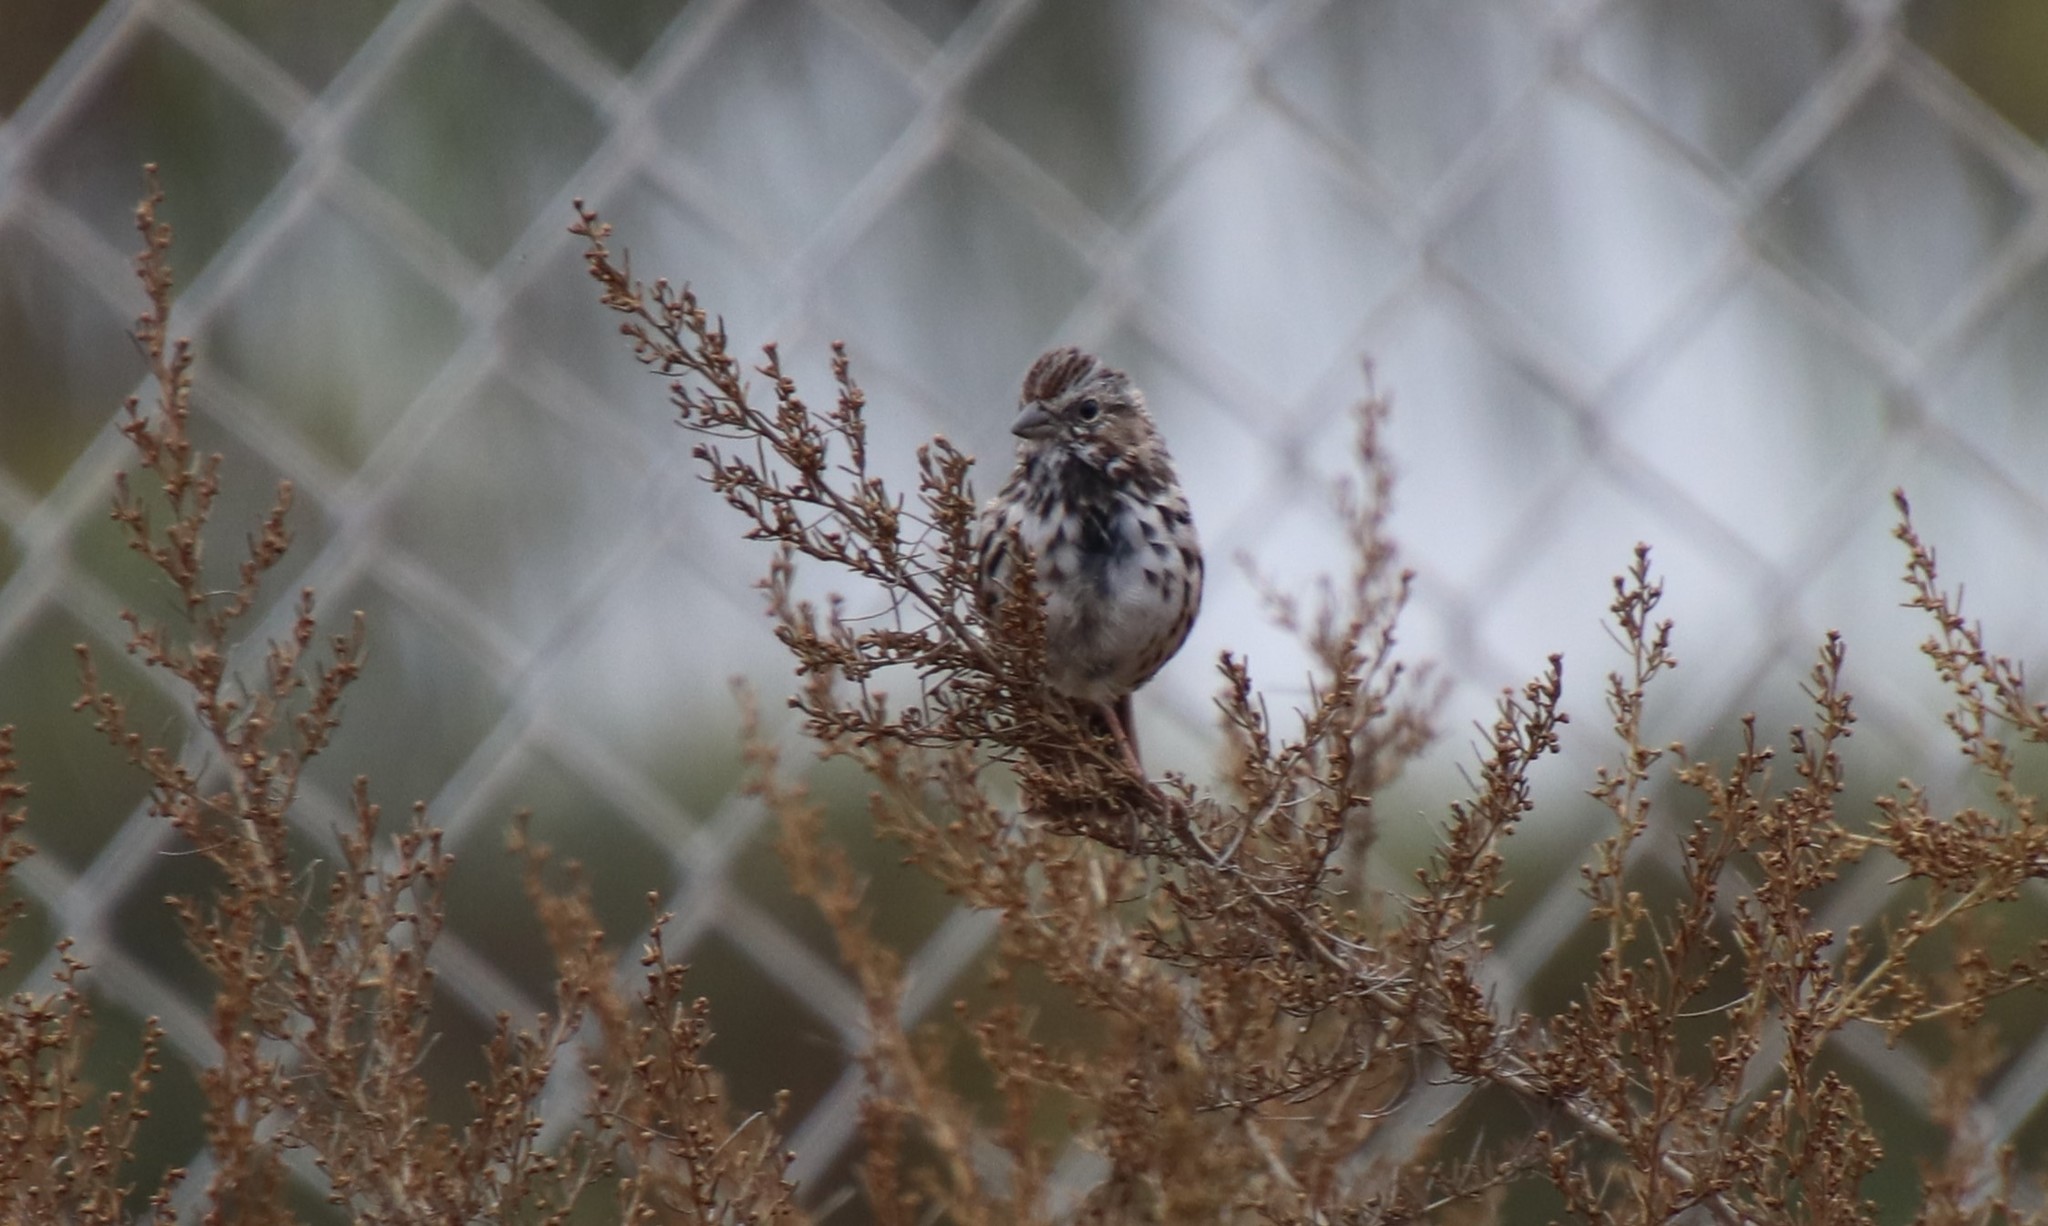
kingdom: Animalia
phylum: Chordata
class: Aves
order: Passeriformes
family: Passerellidae
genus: Melospiza
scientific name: Melospiza melodia
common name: Song sparrow
